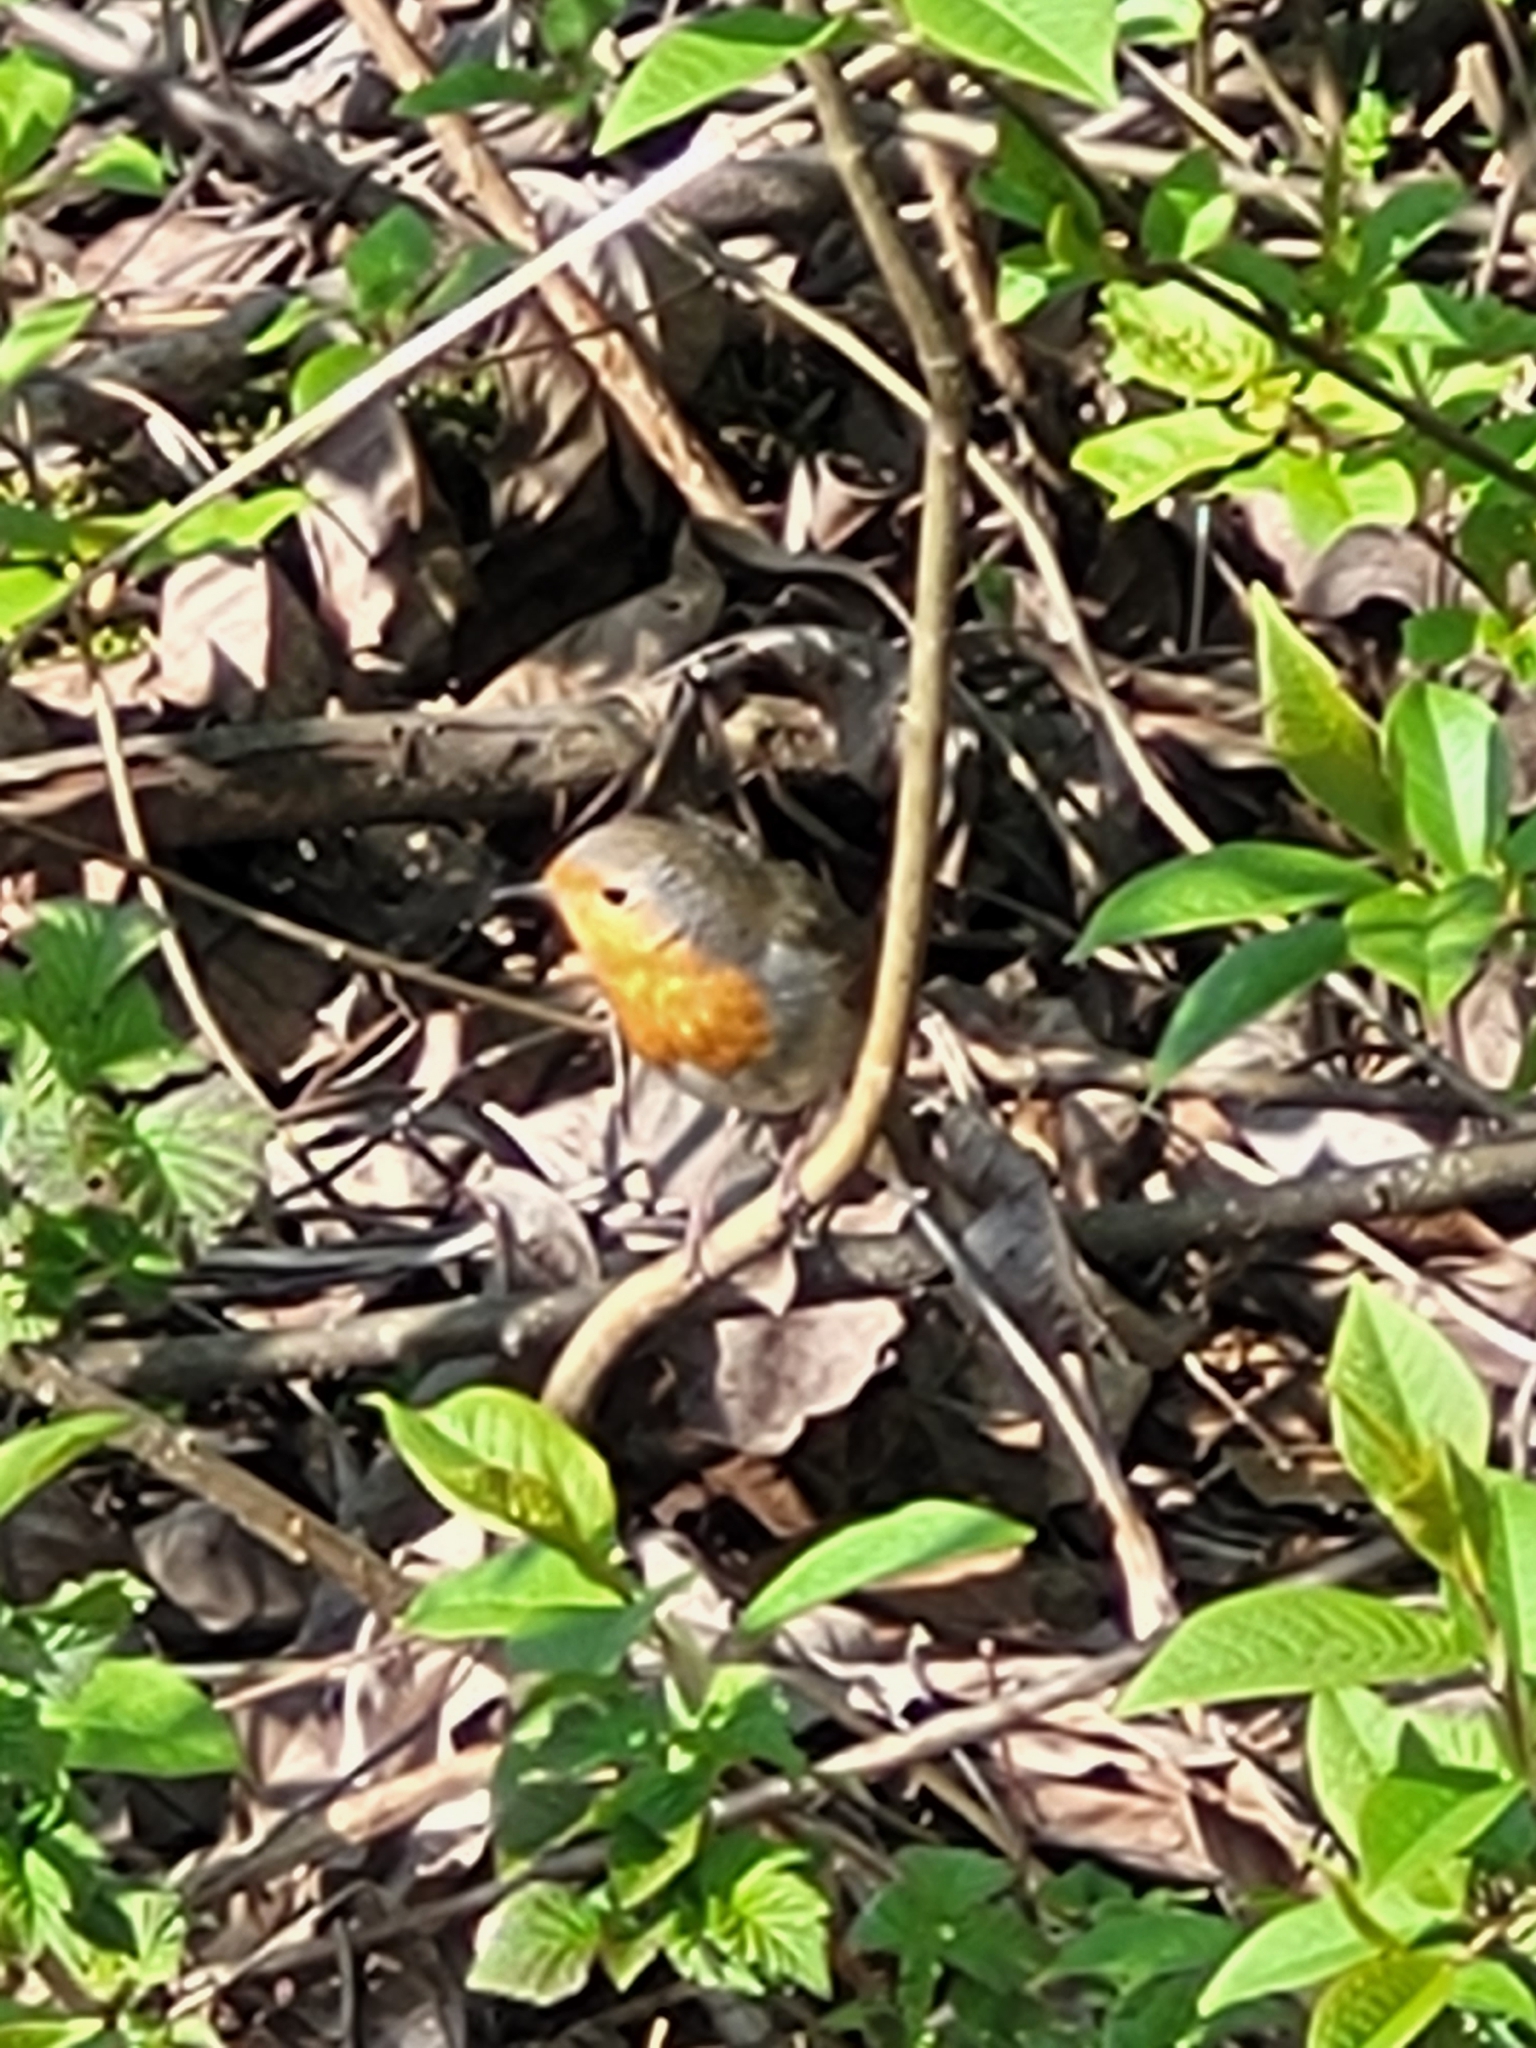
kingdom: Animalia
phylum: Chordata
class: Aves
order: Passeriformes
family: Muscicapidae
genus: Erithacus
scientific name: Erithacus rubecula
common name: European robin
